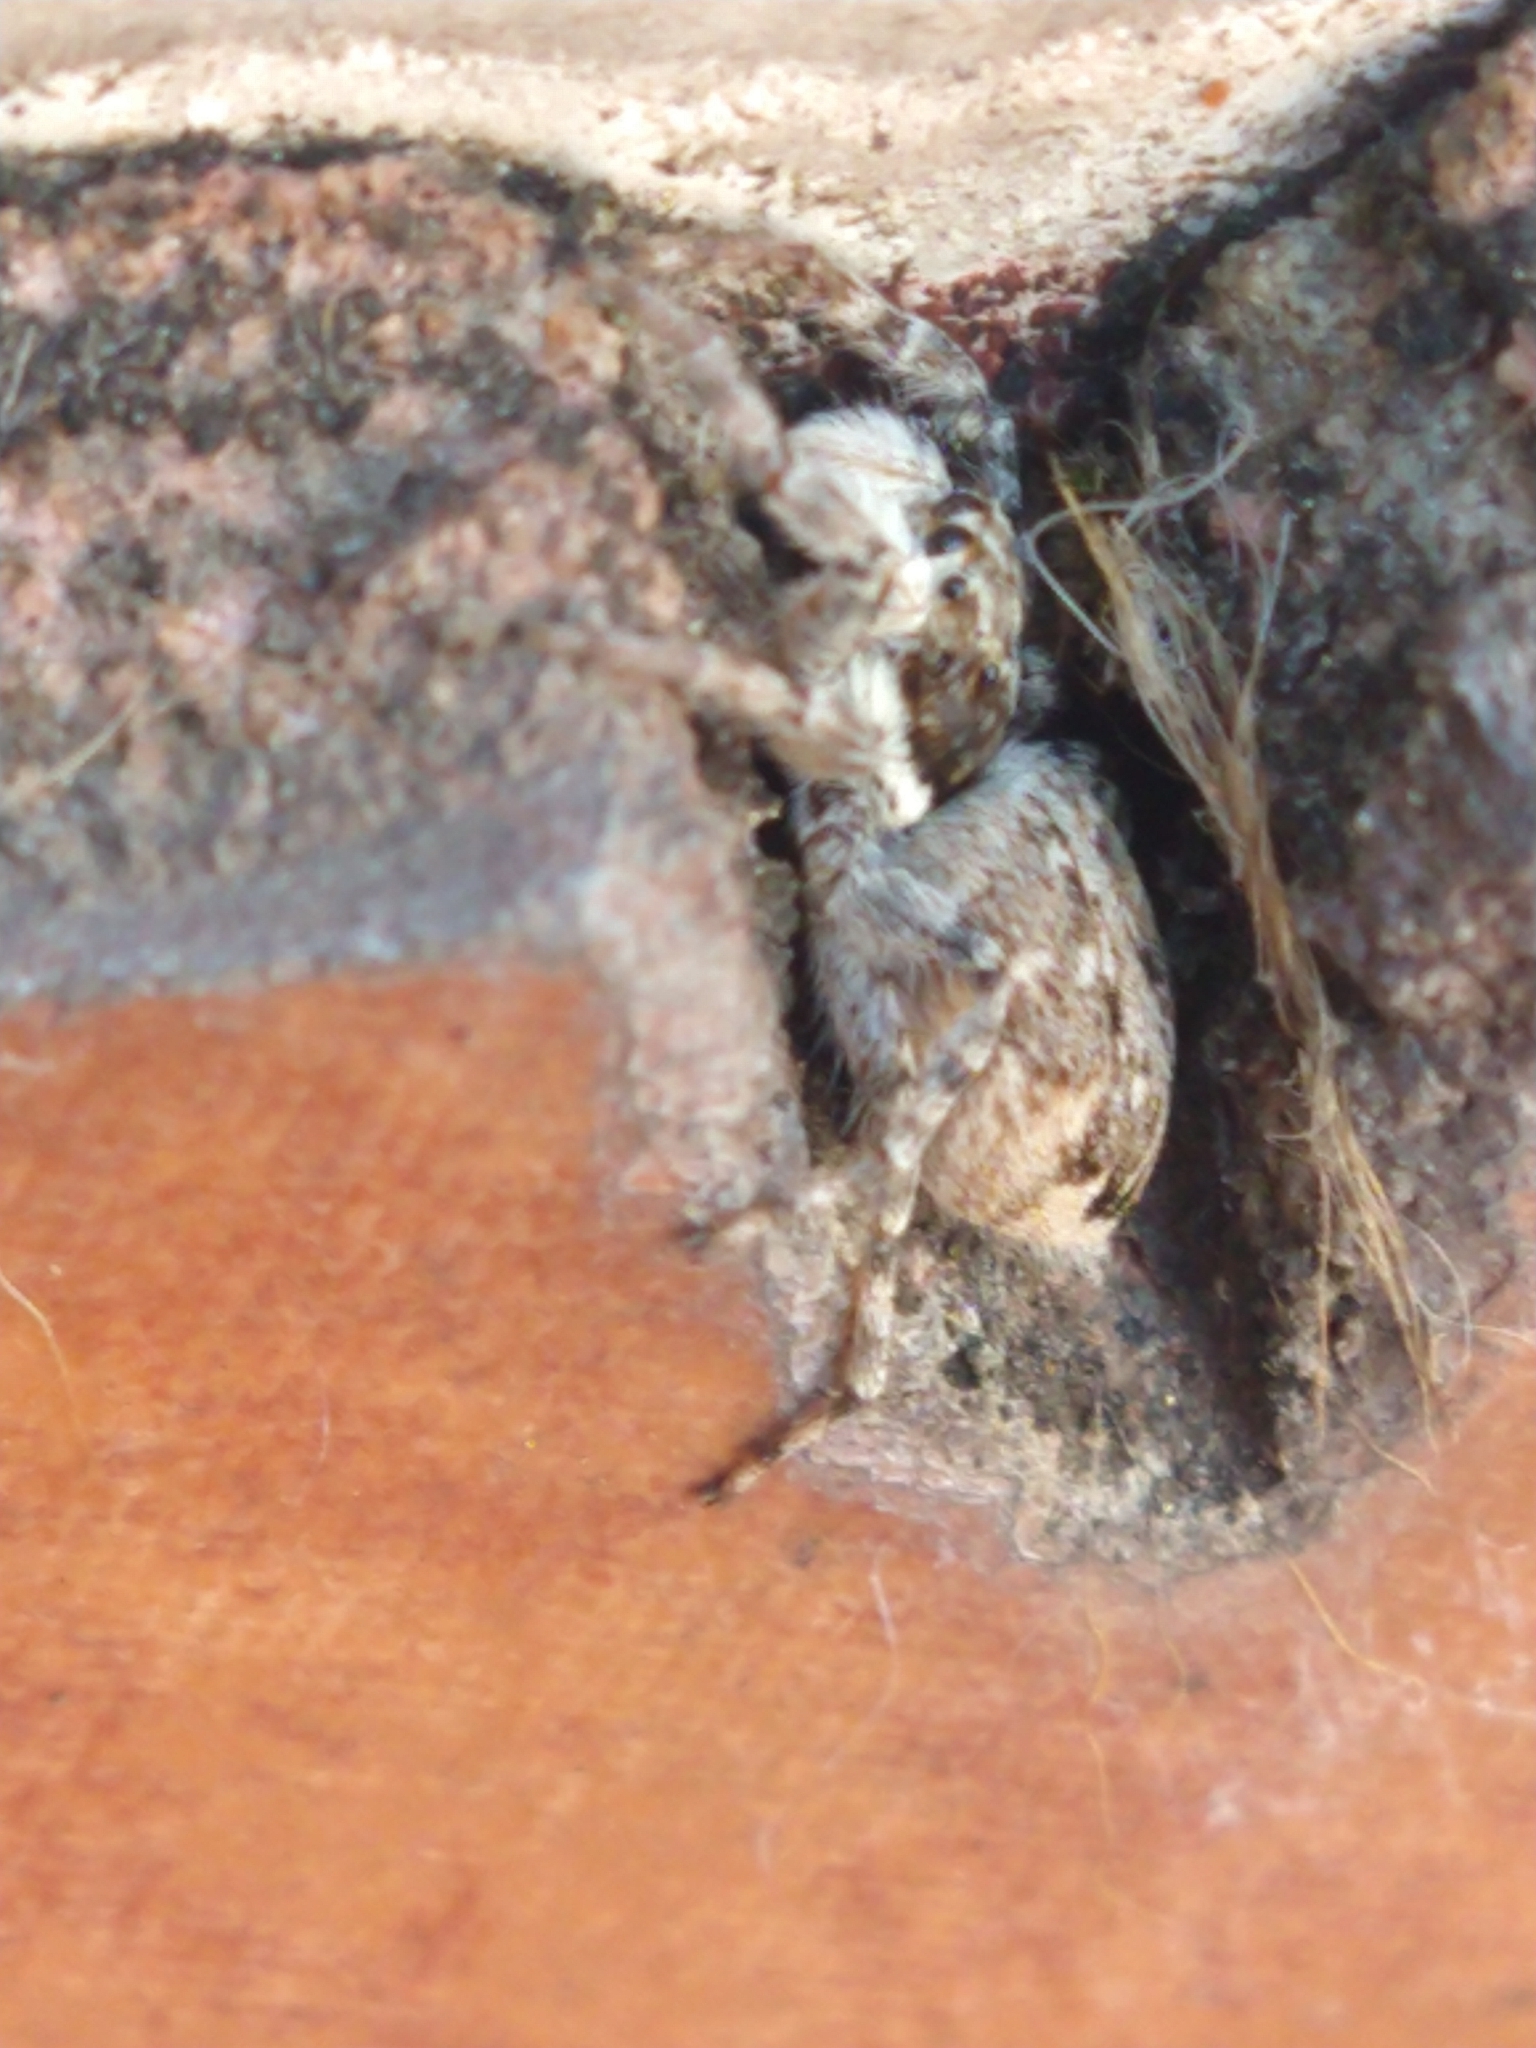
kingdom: Animalia
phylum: Arthropoda
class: Arachnida
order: Araneae
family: Salticidae
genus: Menemerus
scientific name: Menemerus semilimbatus
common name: Jumping spider
